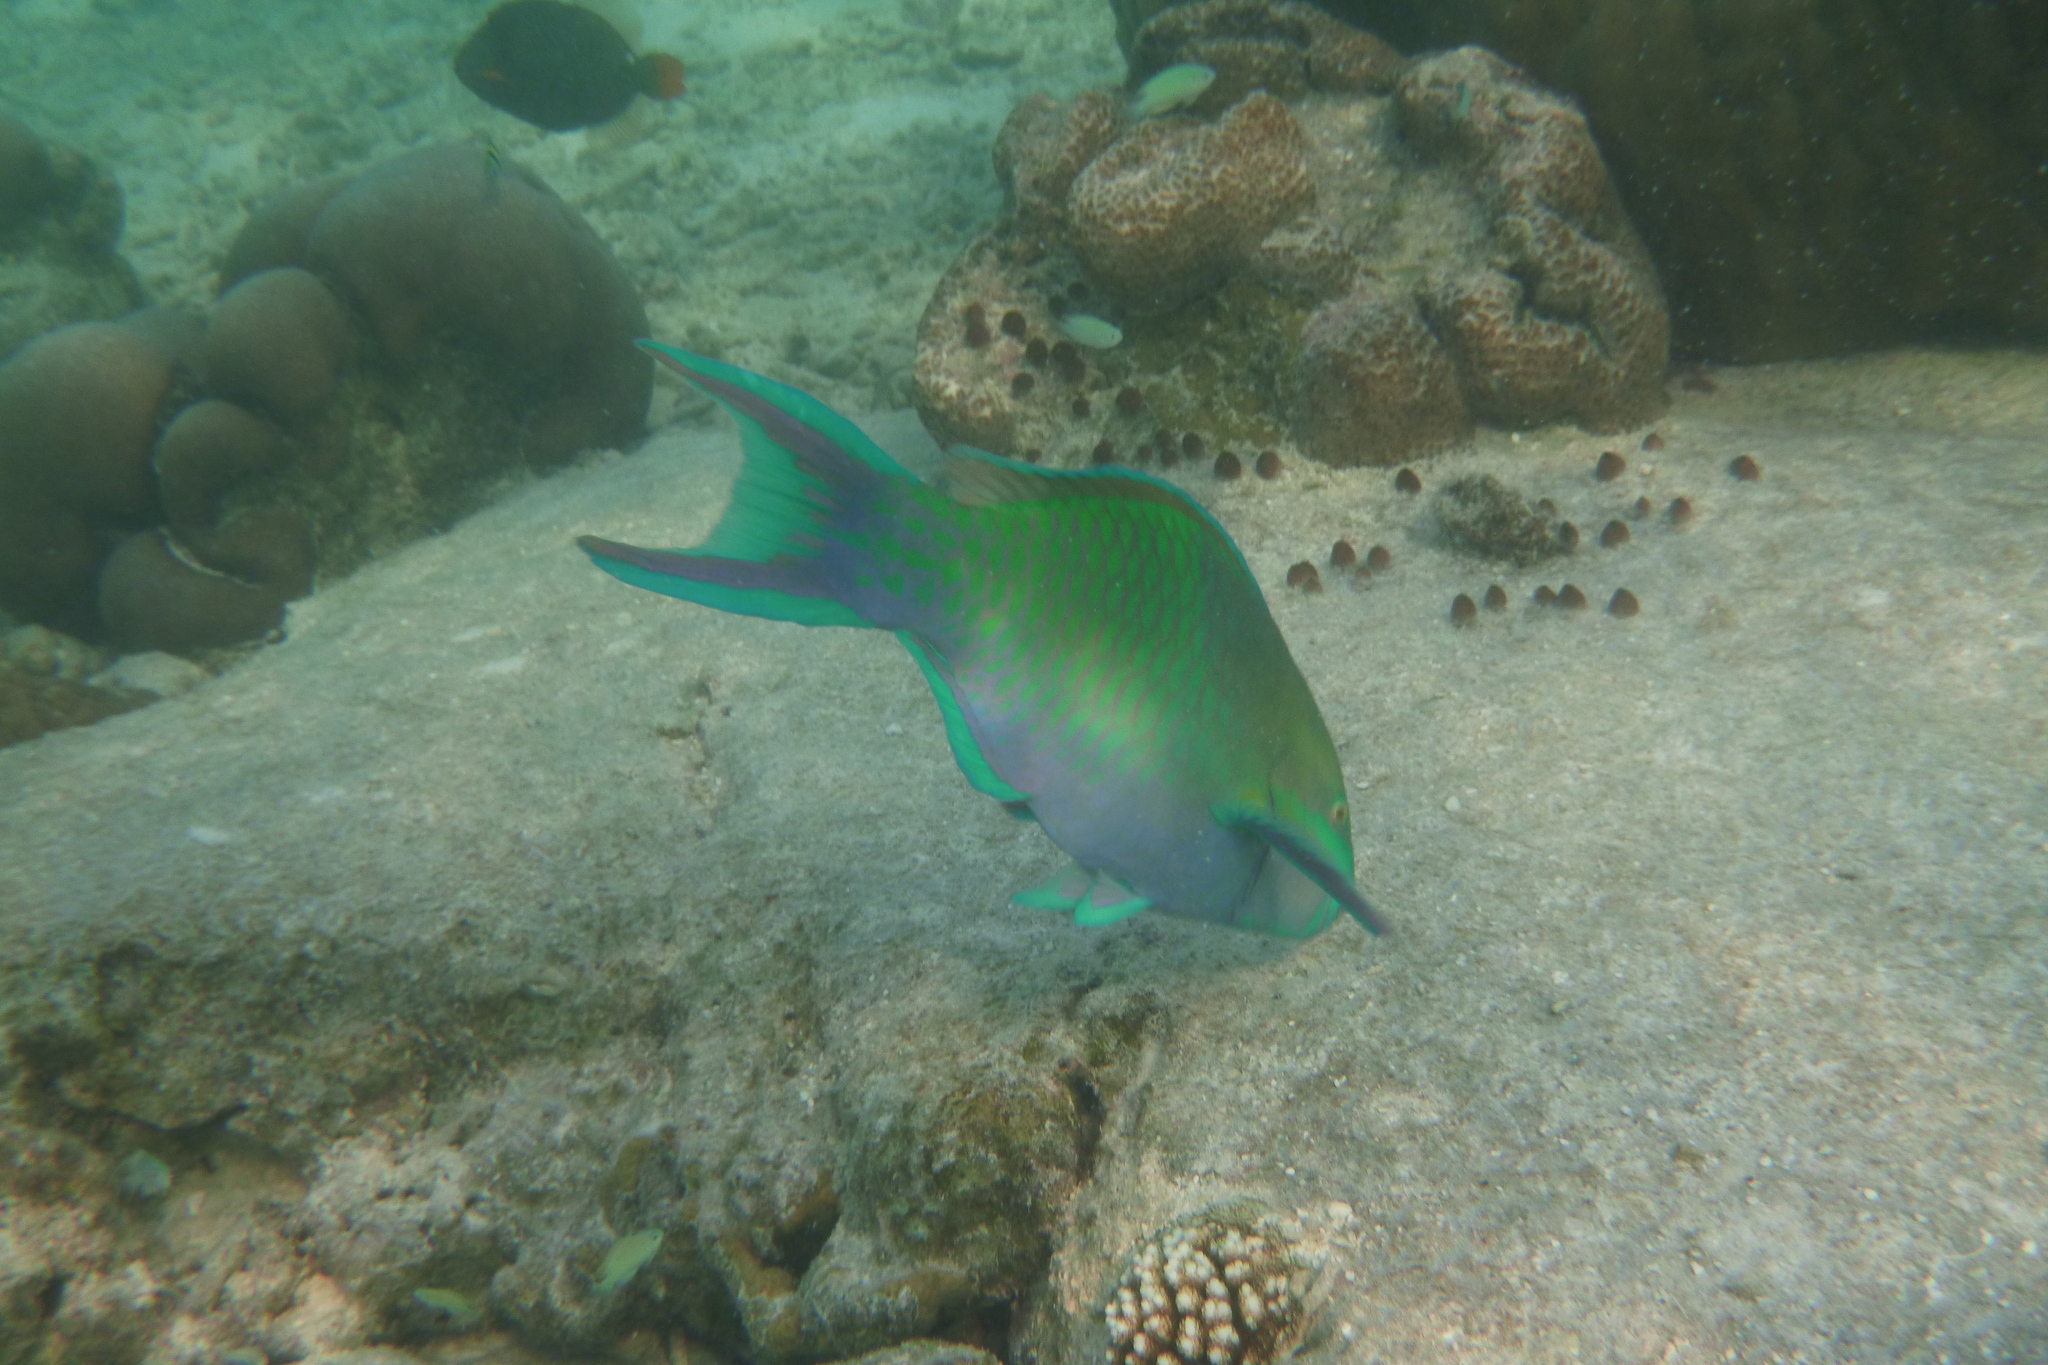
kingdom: Animalia
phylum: Chordata
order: Perciformes
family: Scaridae
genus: Scarus
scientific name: Scarus scaber
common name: Dusky-capped parrotfish
